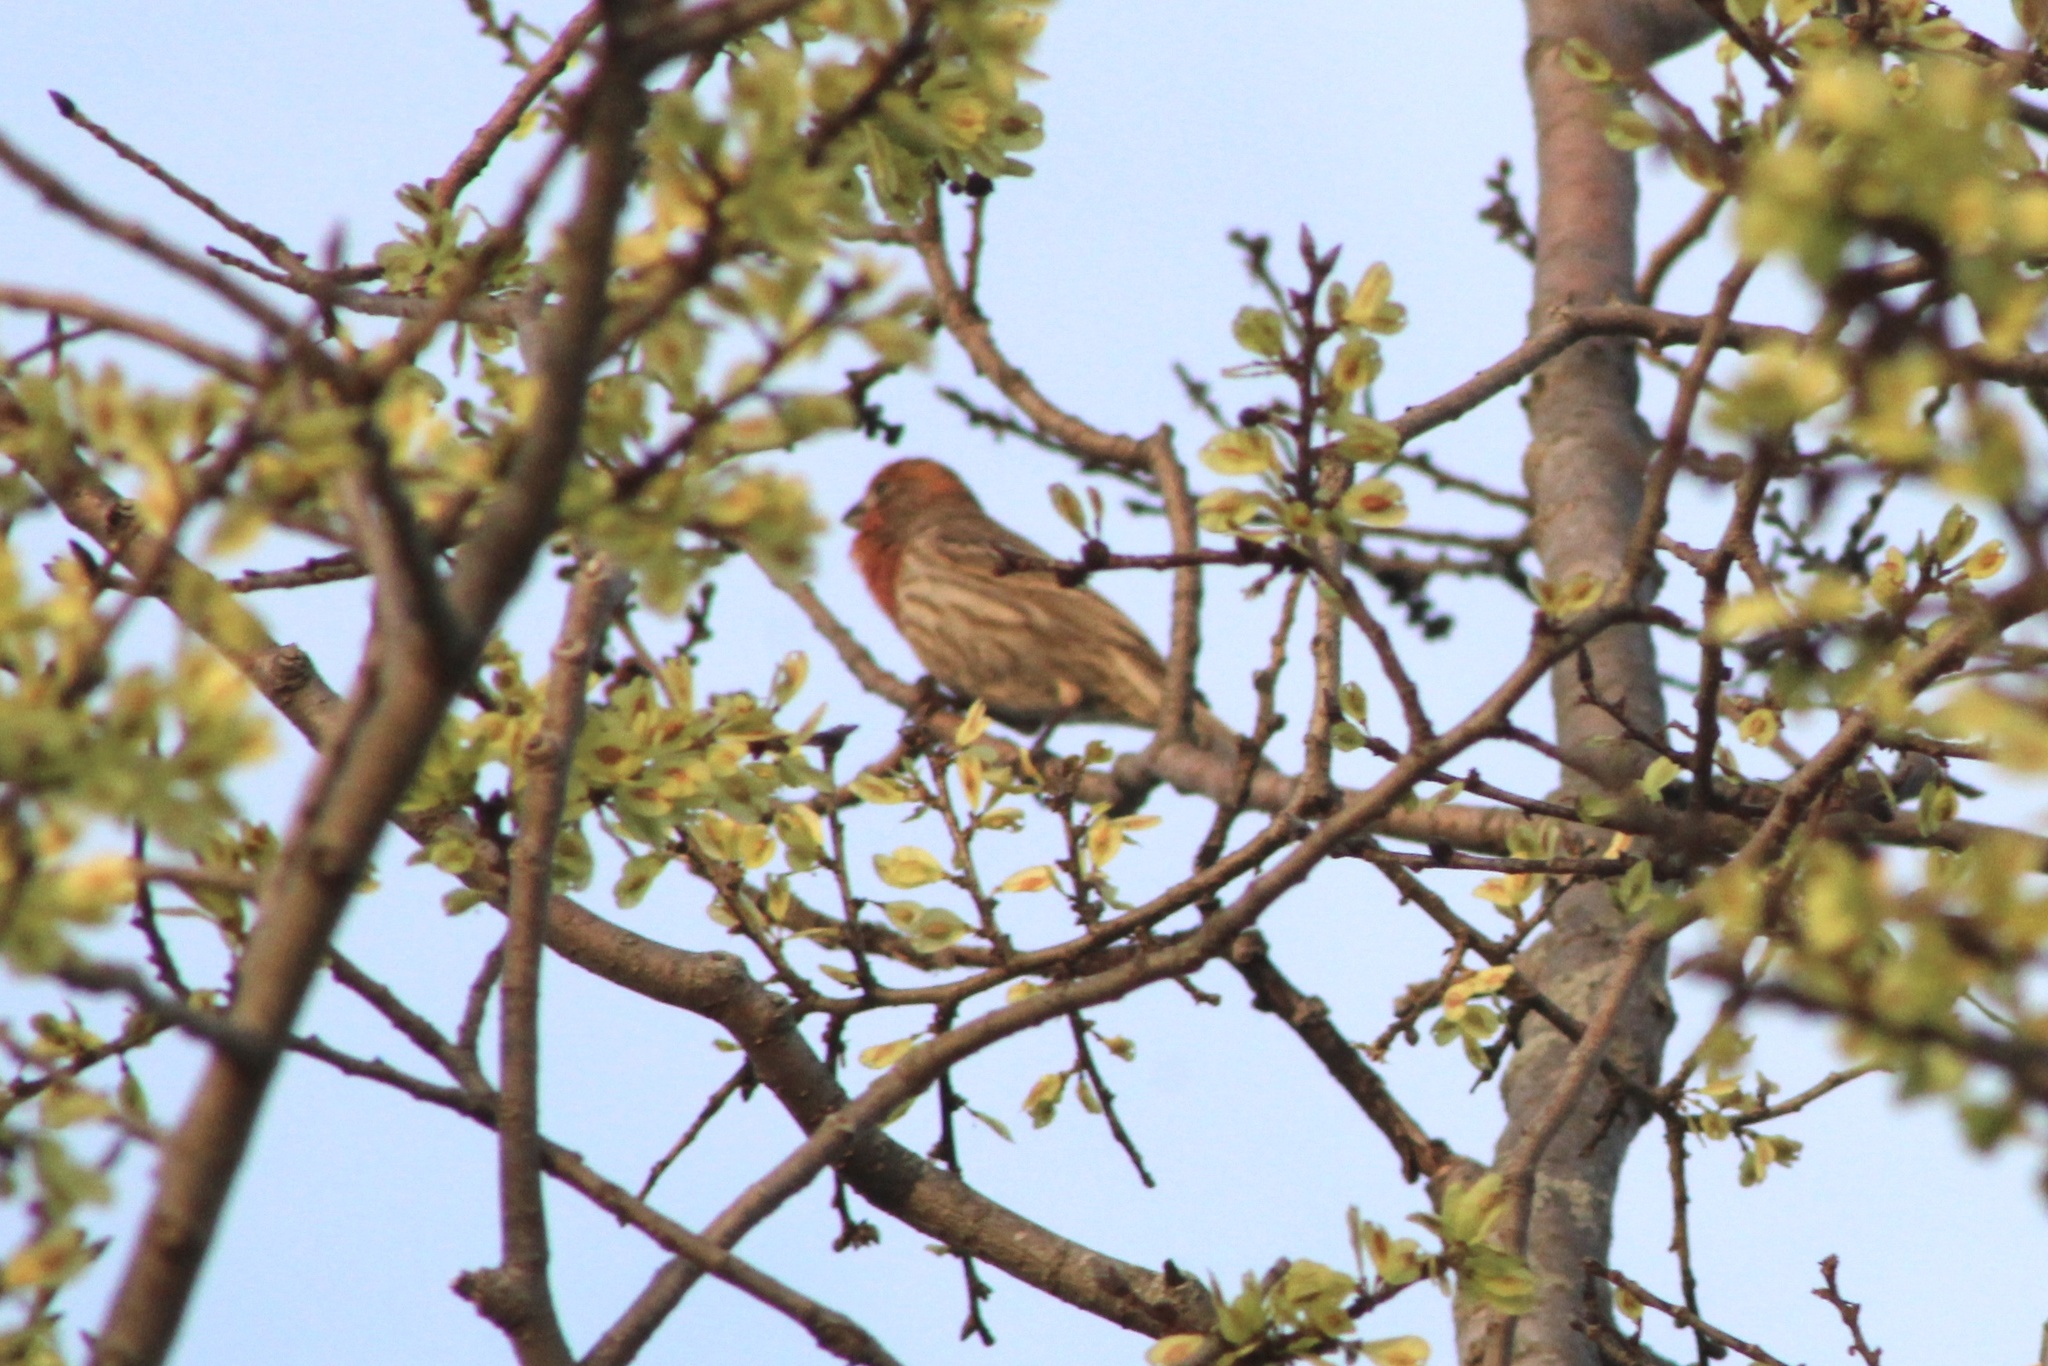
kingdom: Animalia
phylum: Chordata
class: Aves
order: Passeriformes
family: Fringillidae
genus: Haemorhous
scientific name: Haemorhous mexicanus
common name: House finch
